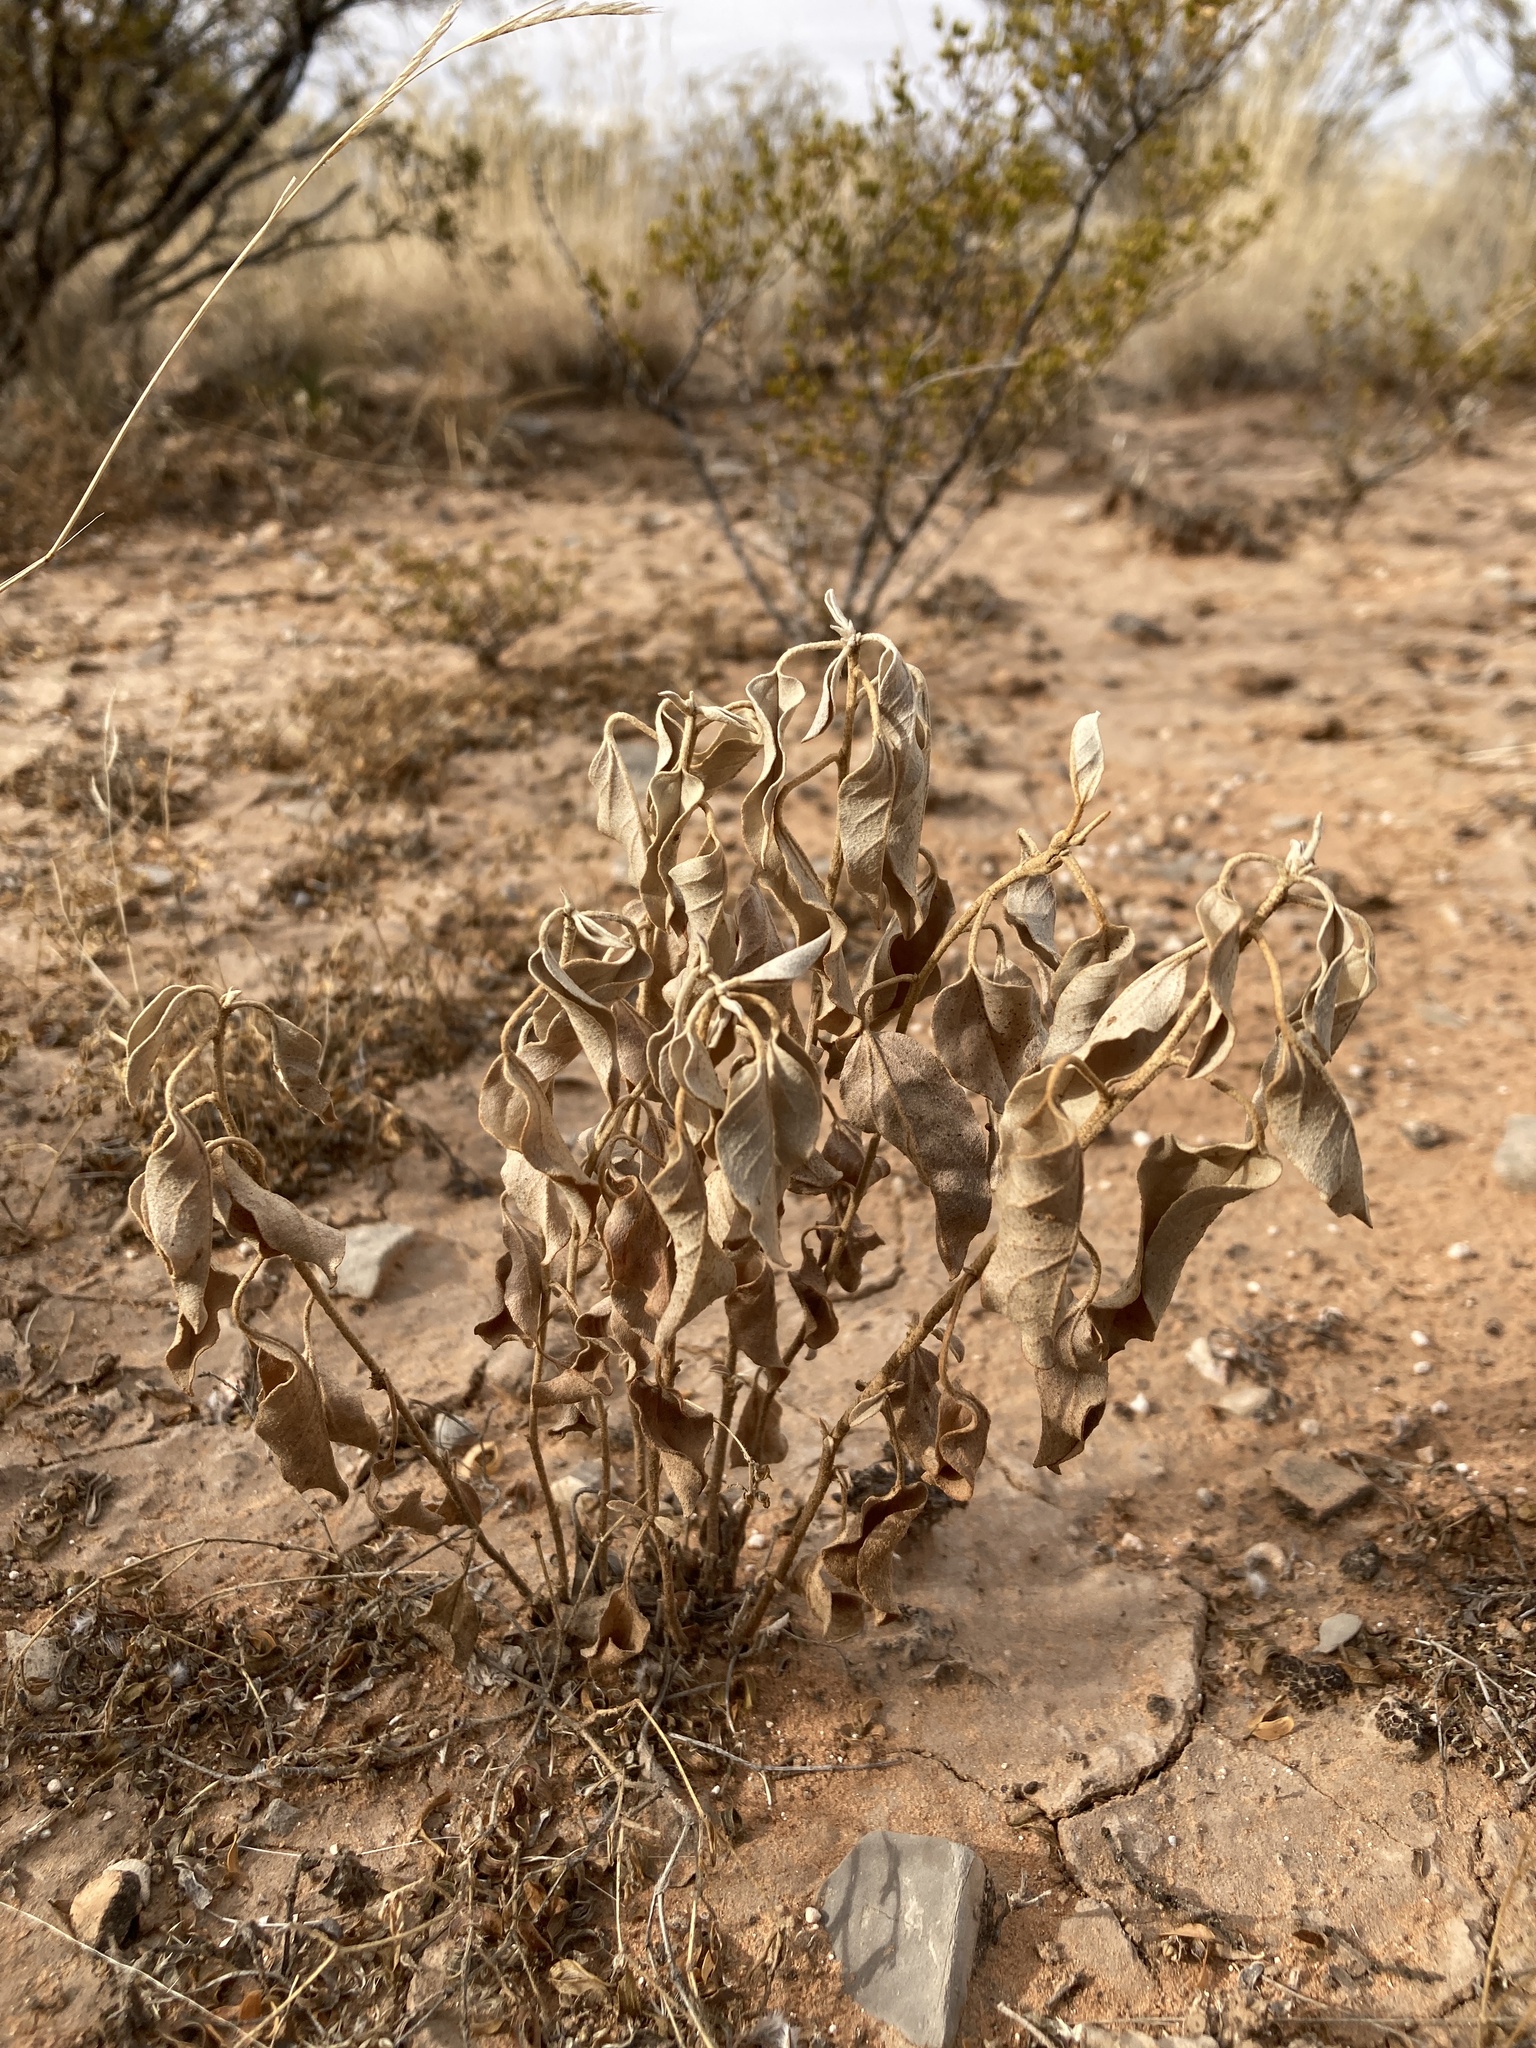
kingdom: Plantae
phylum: Tracheophyta
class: Magnoliopsida
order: Malpighiales
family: Euphorbiaceae
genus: Croton
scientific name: Croton pottsii
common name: Leatherweed
